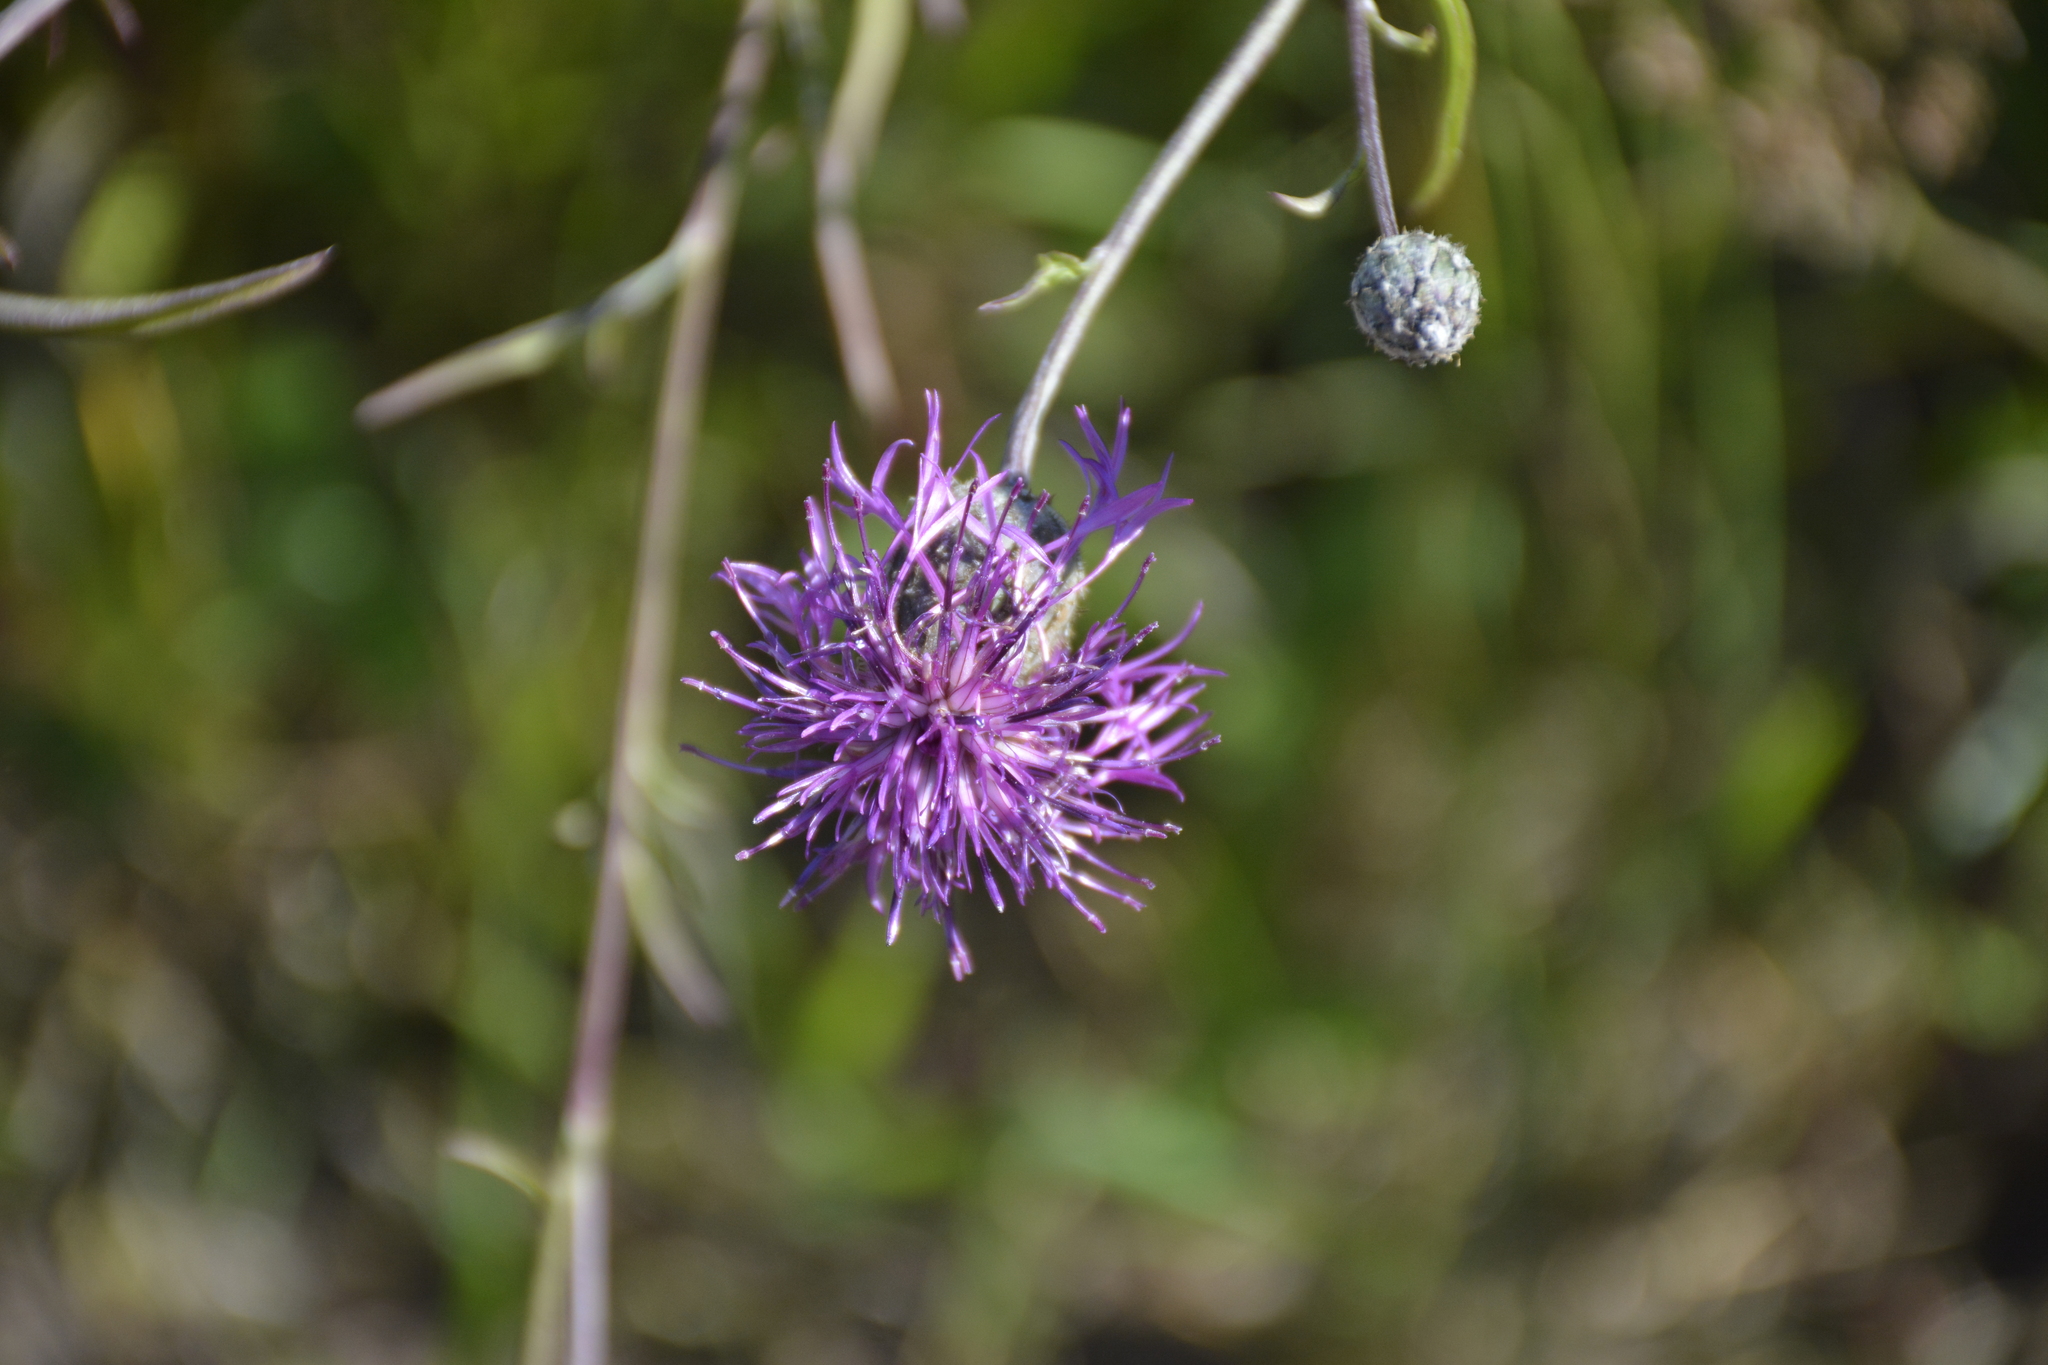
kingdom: Plantae
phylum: Tracheophyta
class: Magnoliopsida
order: Asterales
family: Asteraceae
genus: Centaurea
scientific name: Centaurea scabiosa
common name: Greater knapweed
